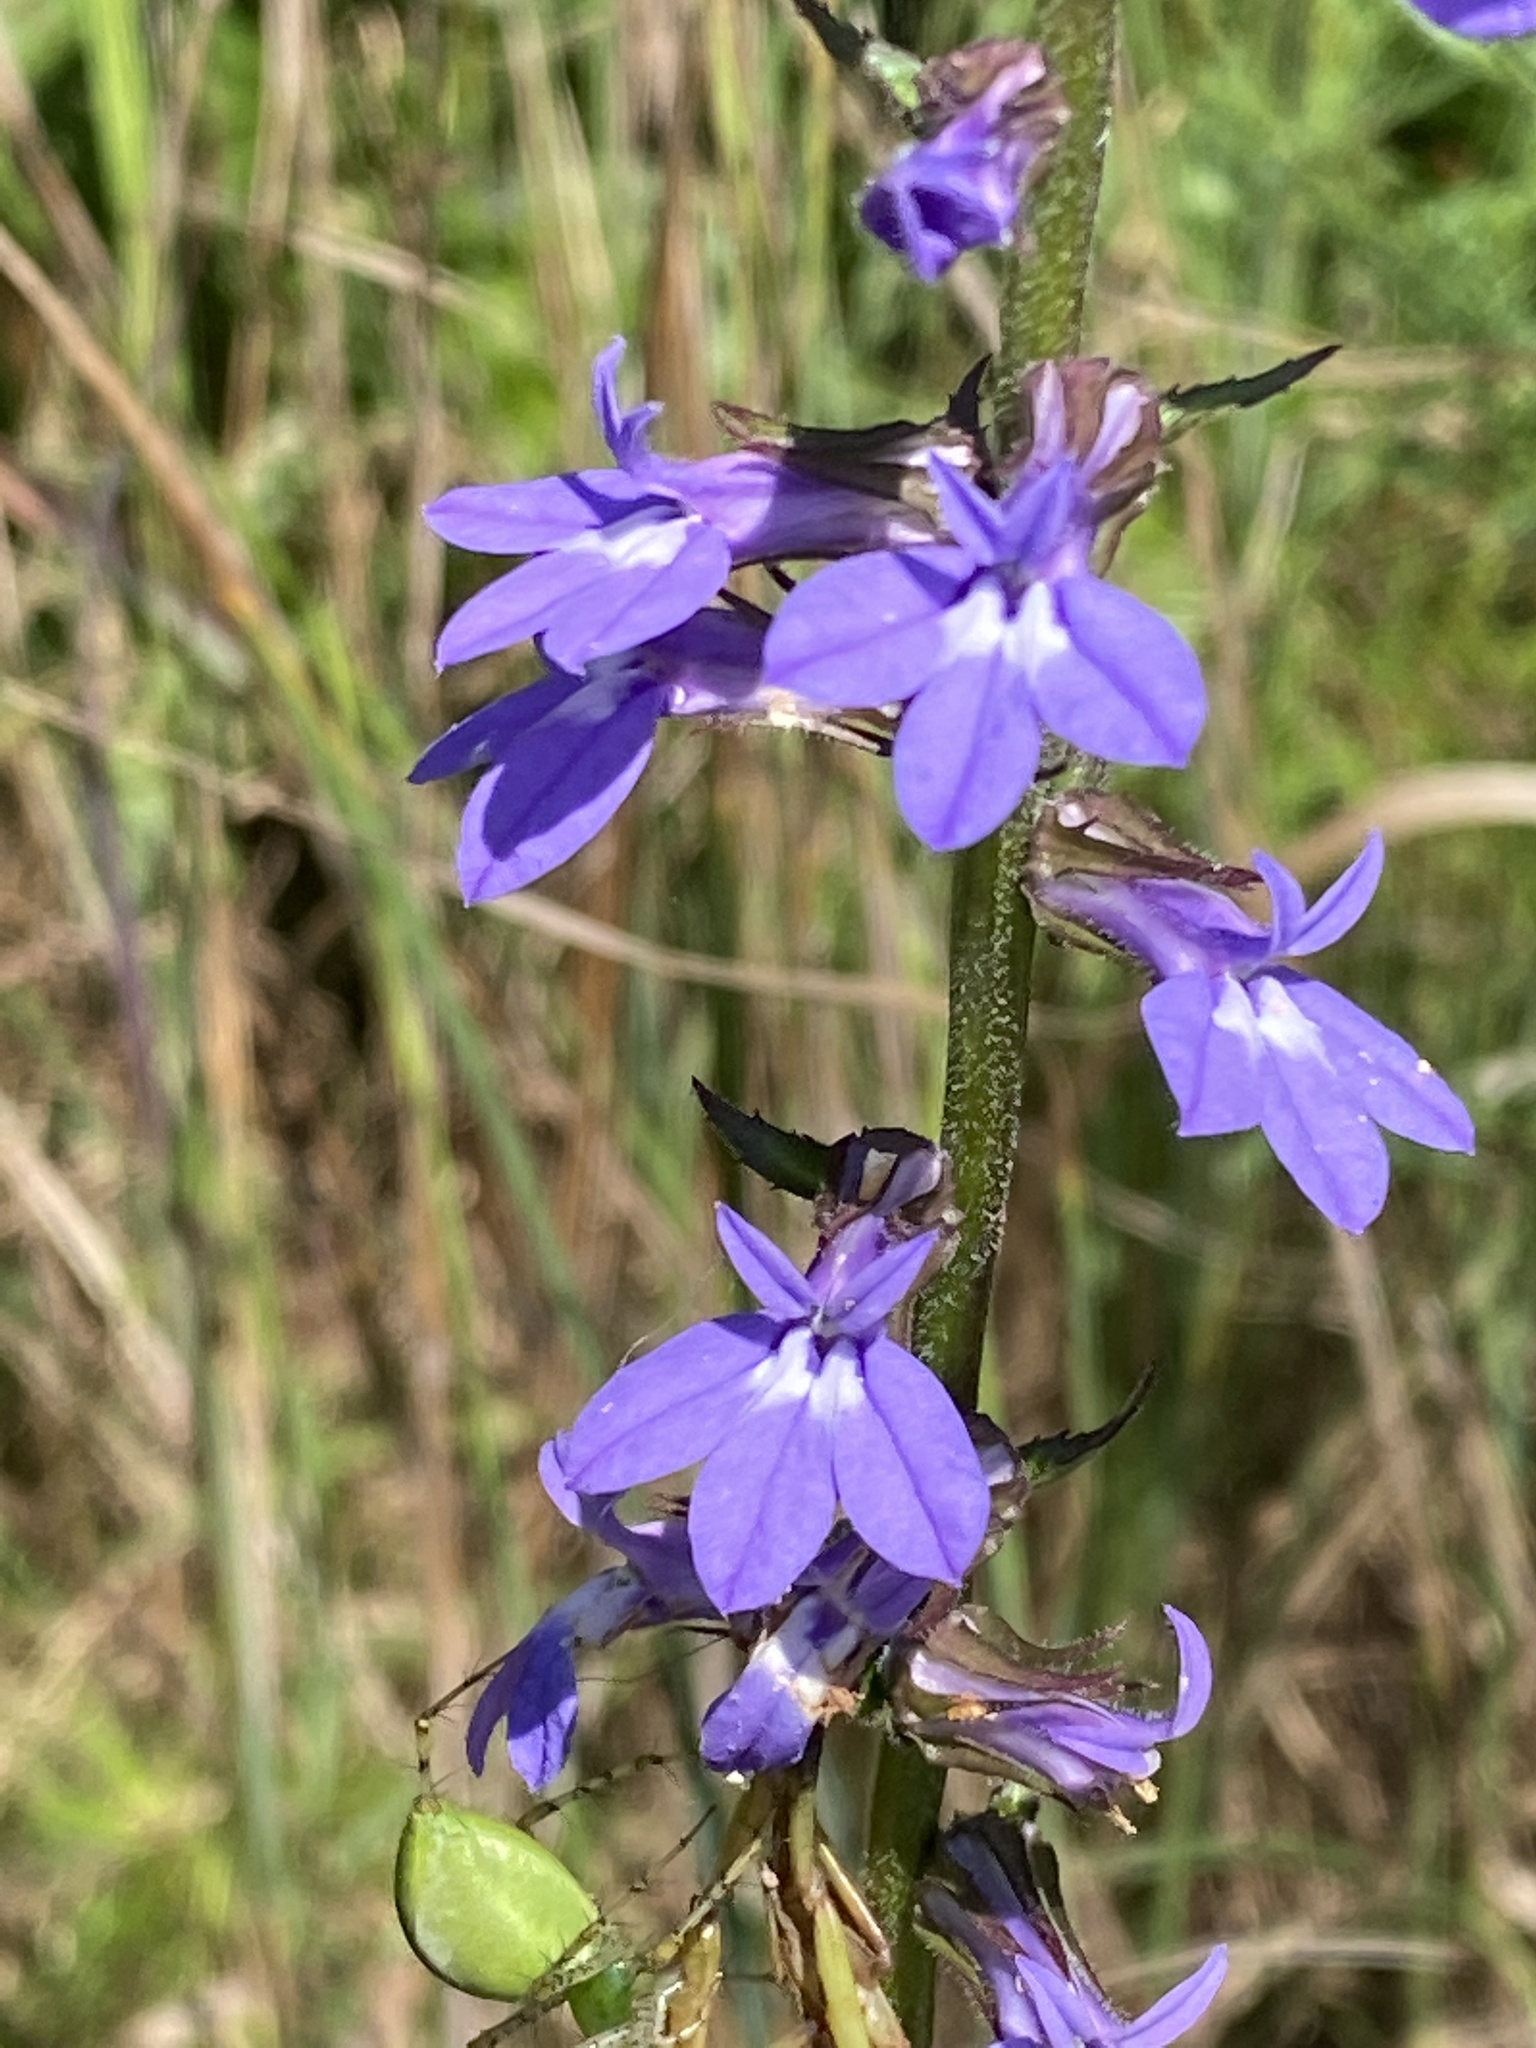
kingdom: Plantae
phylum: Tracheophyta
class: Magnoliopsida
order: Asterales
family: Campanulaceae
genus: Lobelia
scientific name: Lobelia puberula
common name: Purple dewdrop
